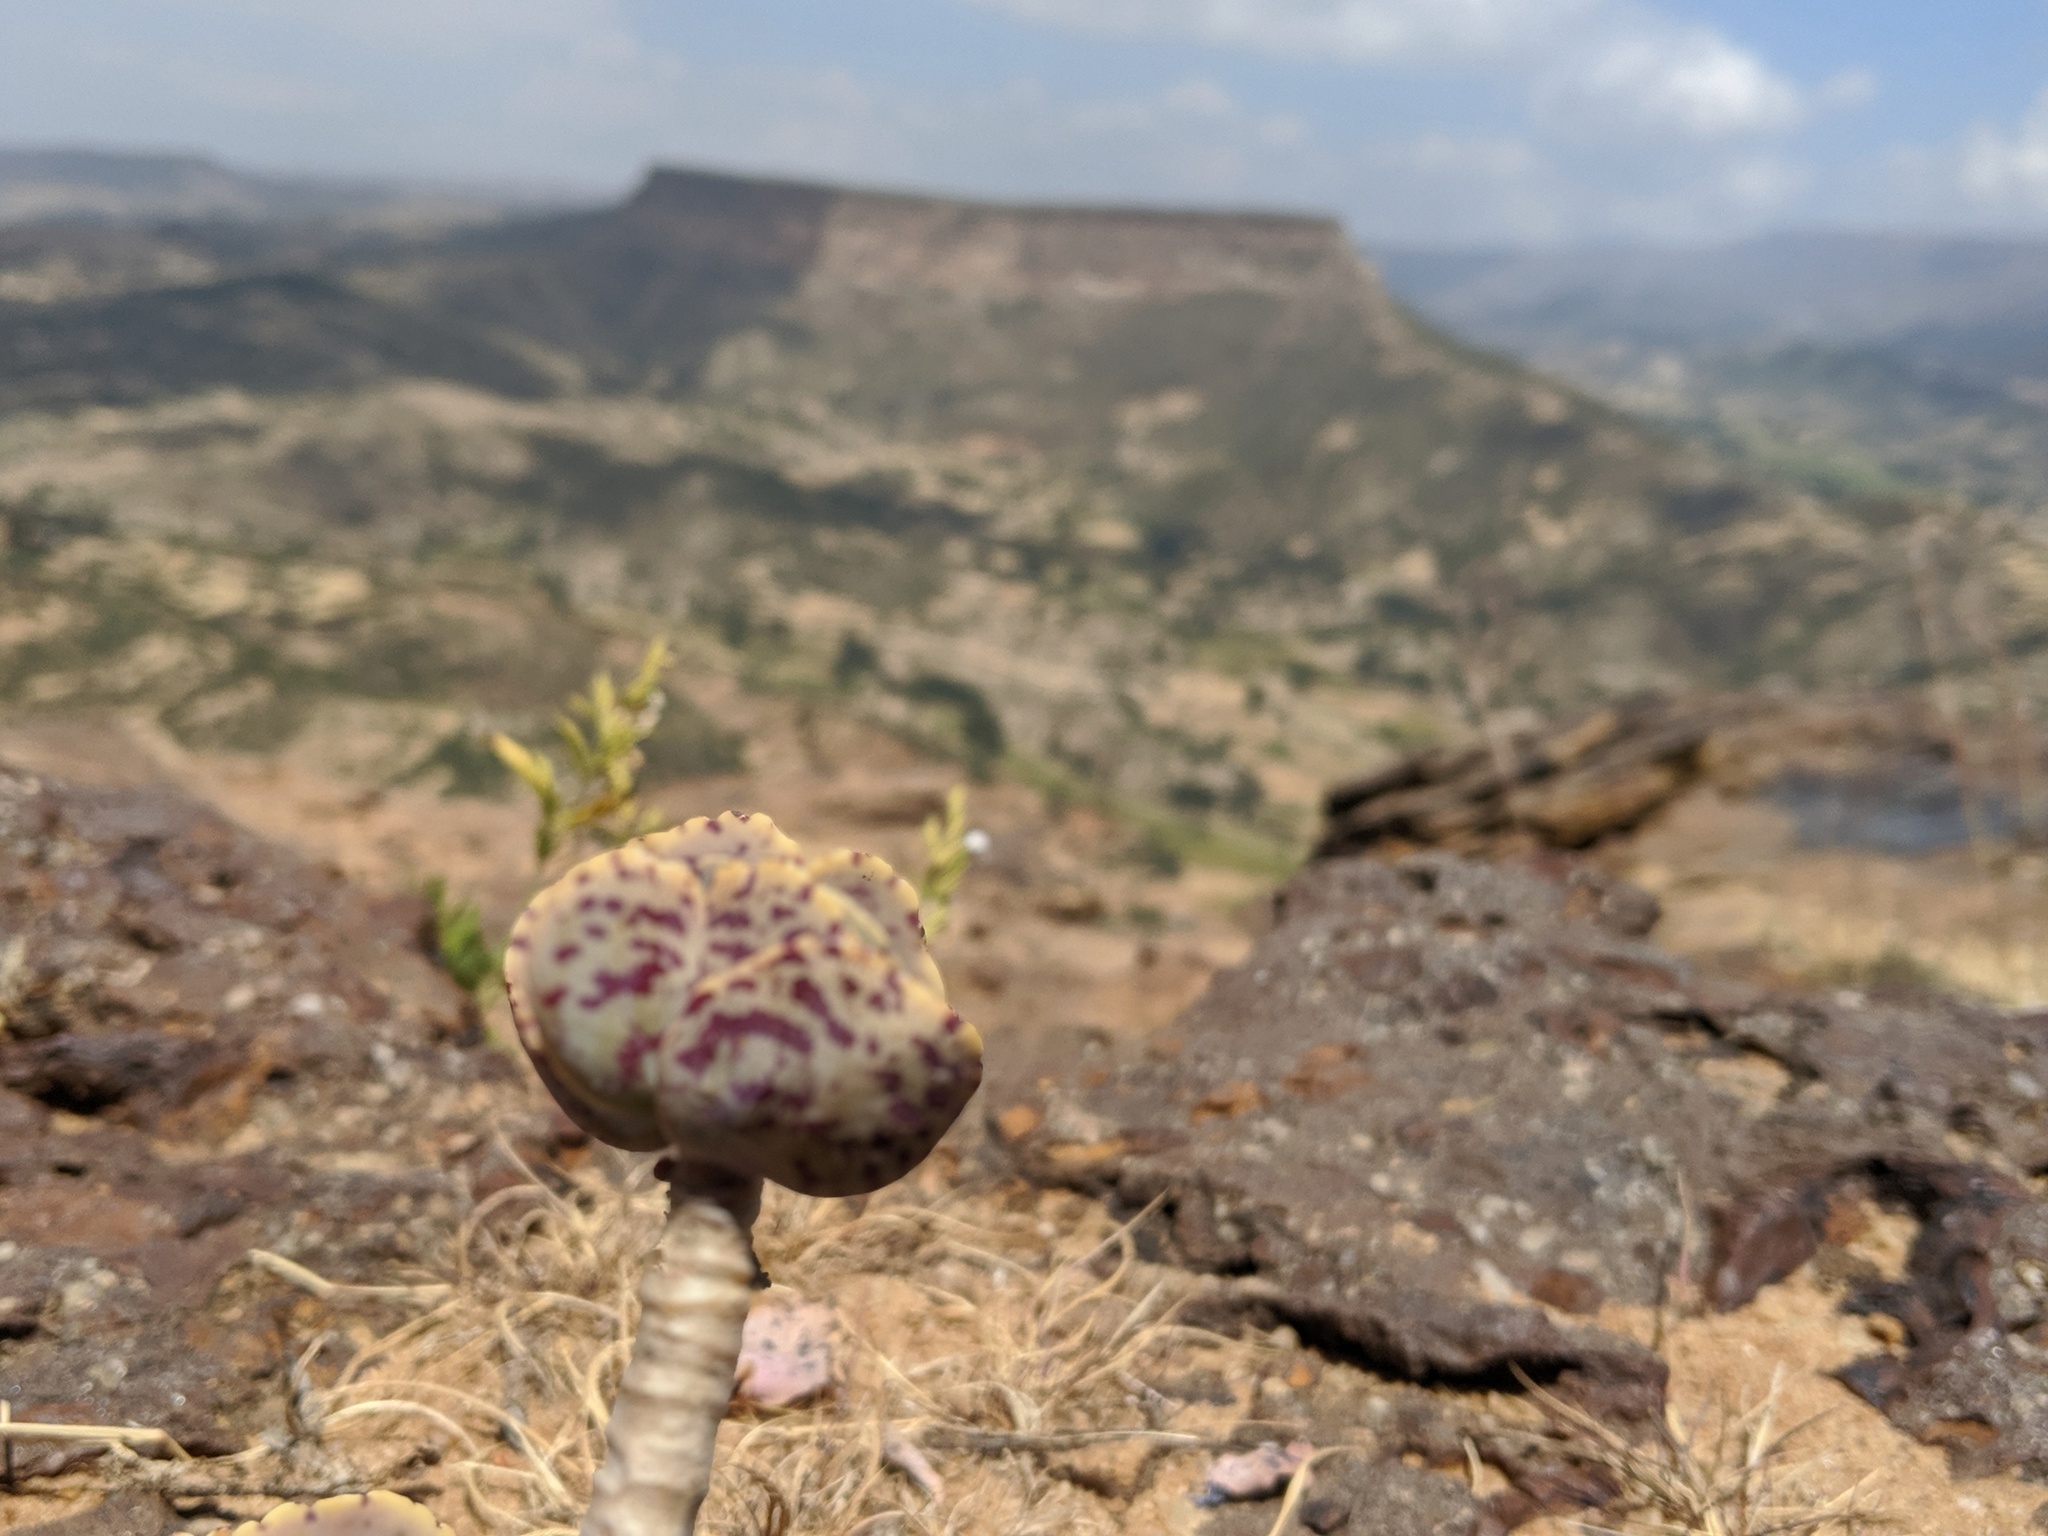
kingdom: Plantae
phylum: Tracheophyta
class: Magnoliopsida
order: Saxifragales
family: Crassulaceae
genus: Kalanchoe
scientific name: Kalanchoe marmorata
